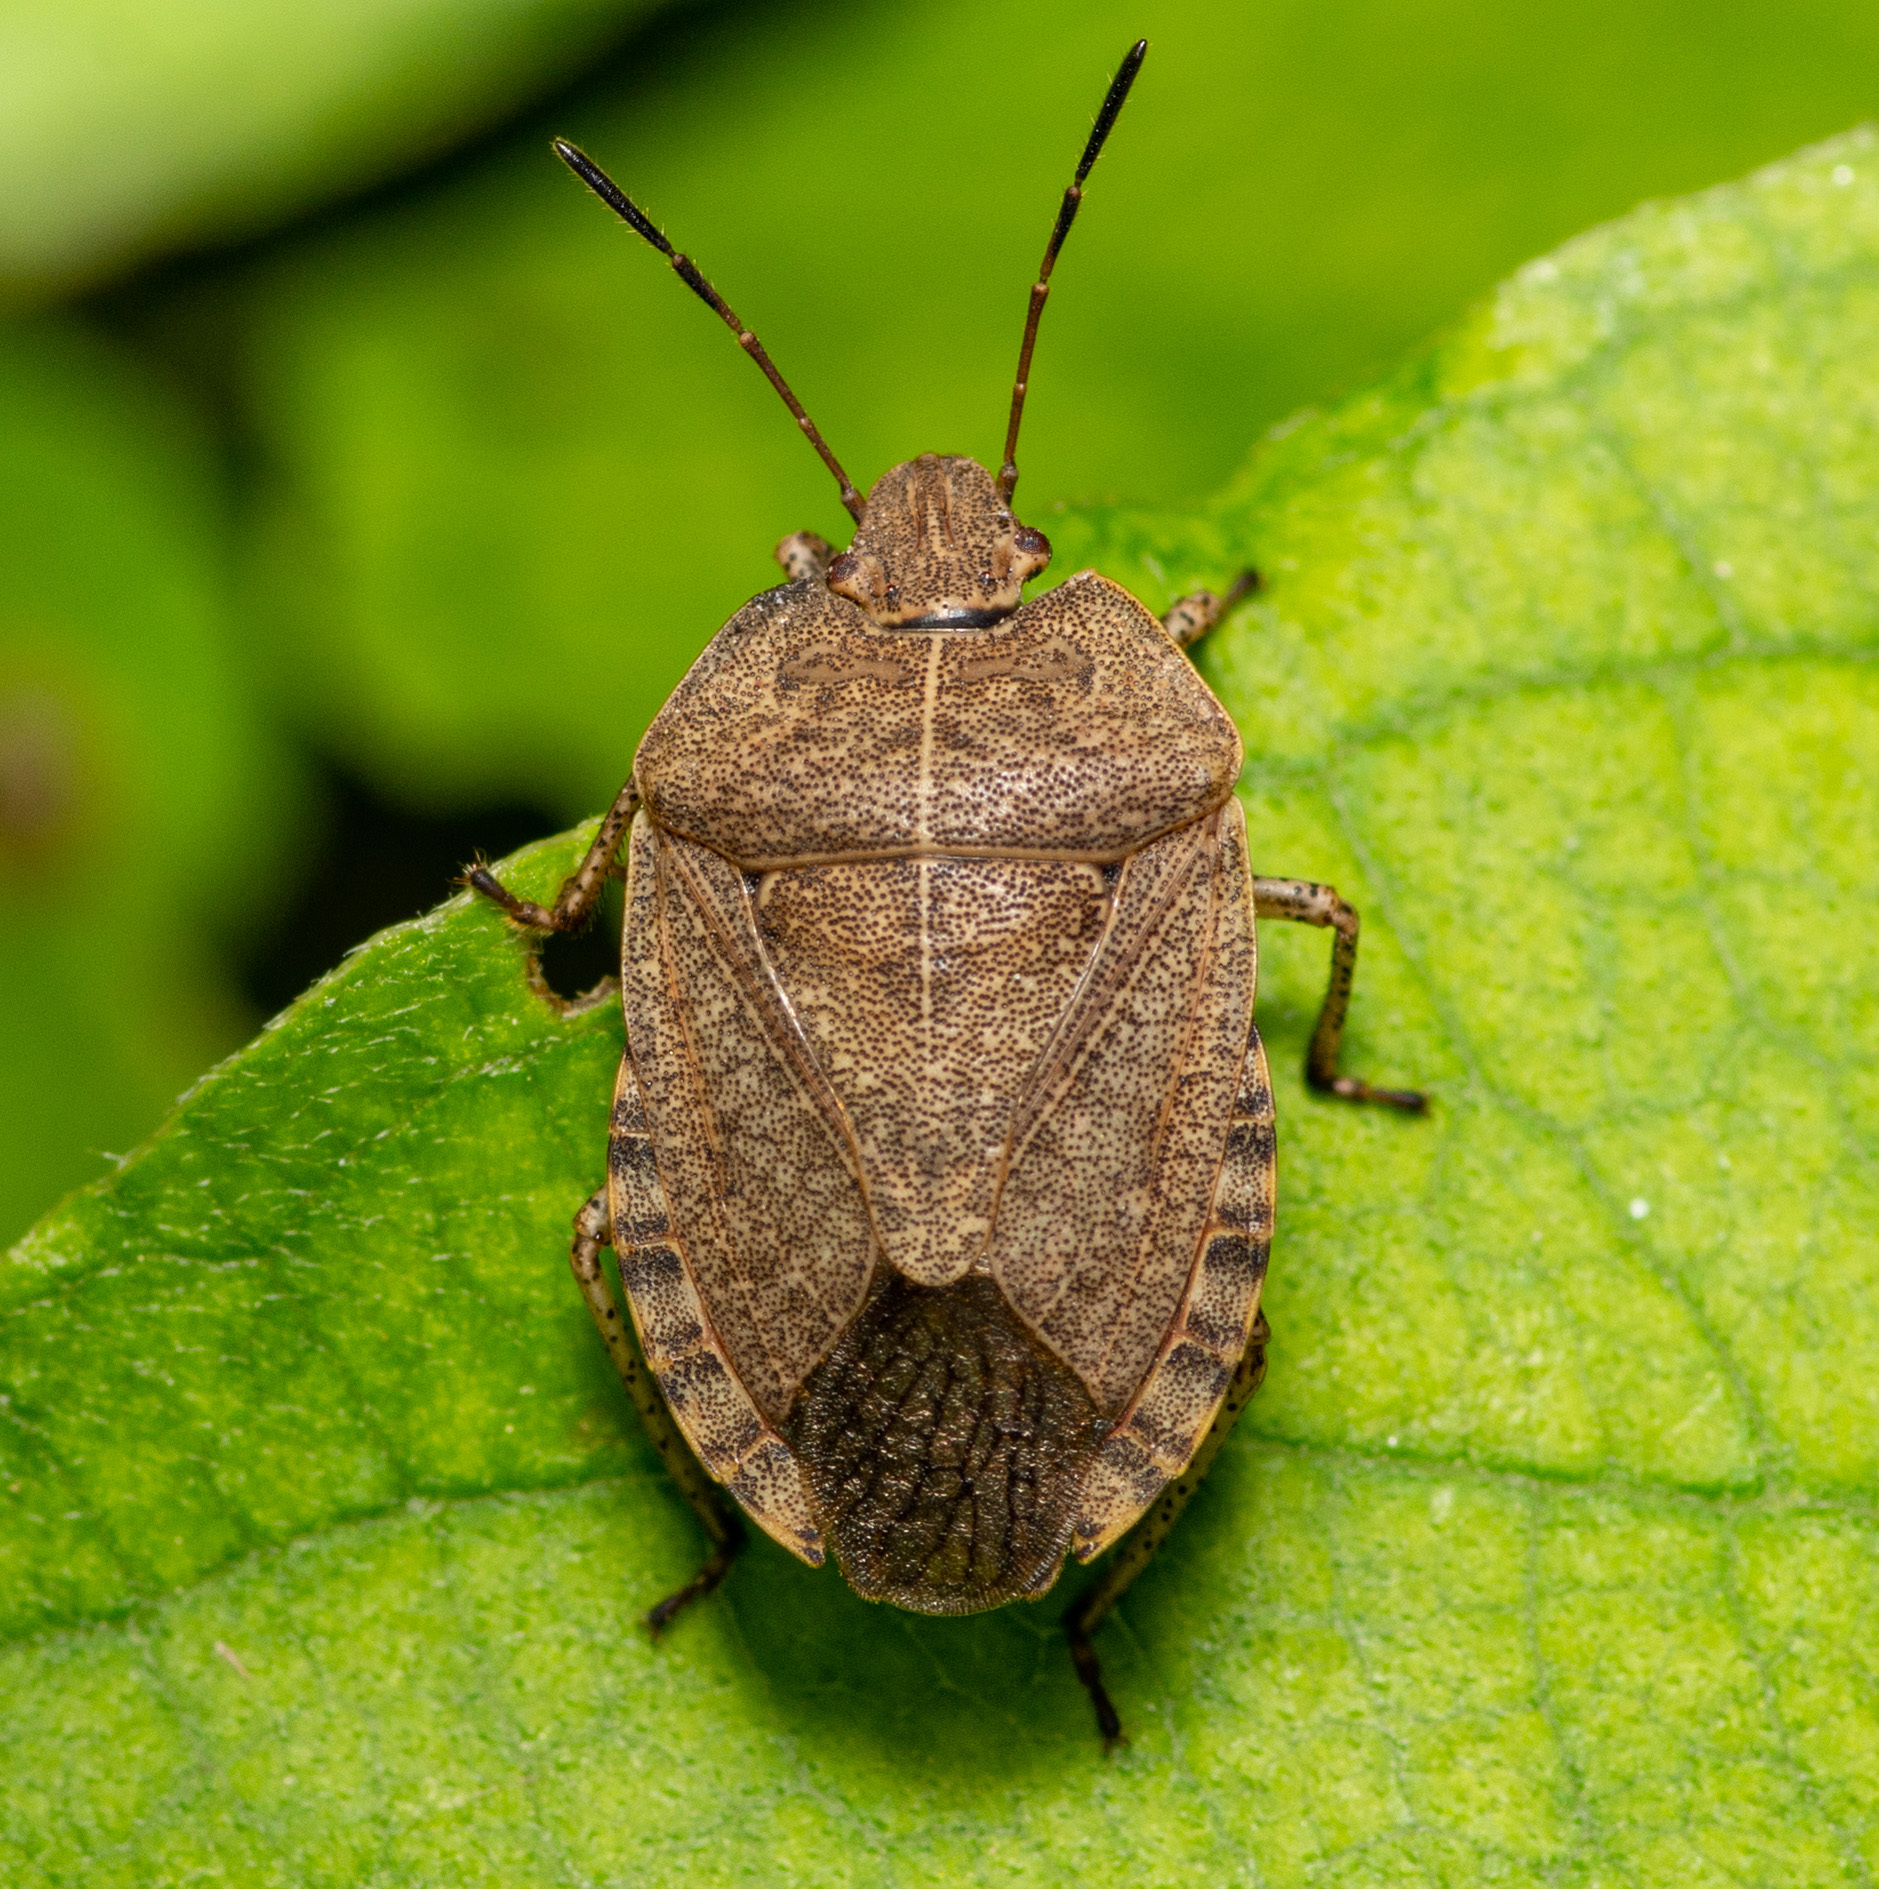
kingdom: Animalia
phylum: Arthropoda
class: Insecta
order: Hemiptera
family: Pentatomidae
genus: Menecles
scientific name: Menecles insertus
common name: Elf shoe stink bug
